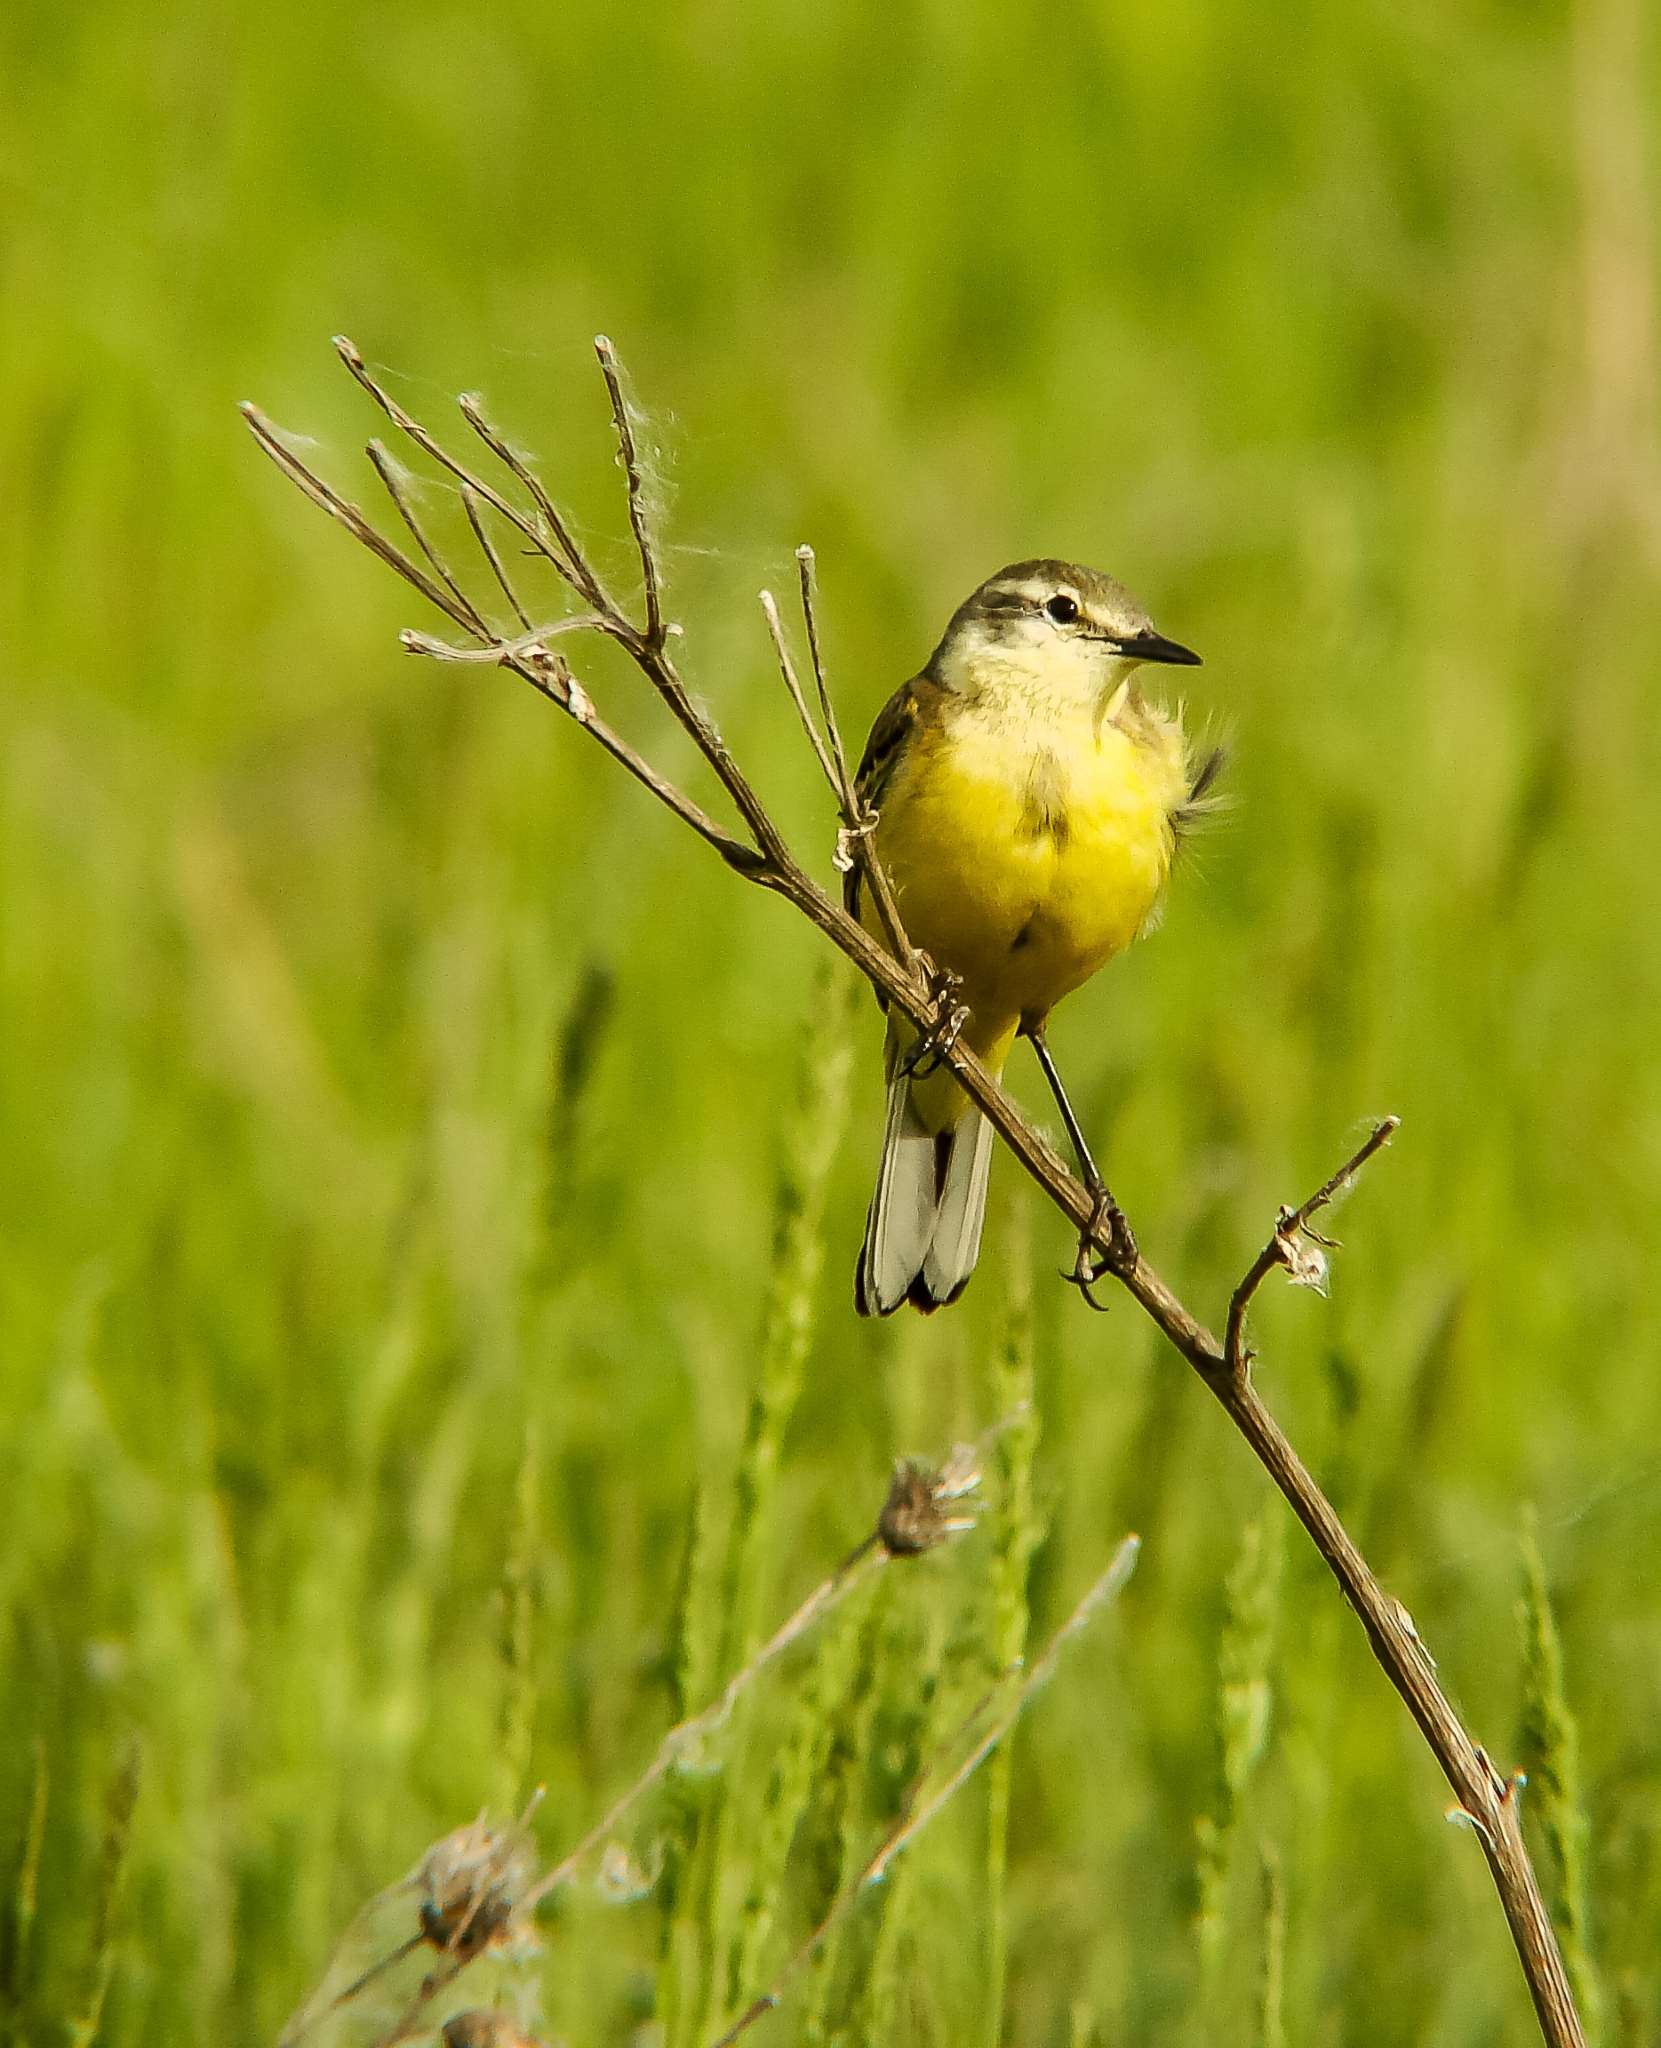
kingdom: Animalia
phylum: Chordata
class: Aves
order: Passeriformes
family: Motacillidae
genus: Motacilla
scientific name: Motacilla flava
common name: Western yellow wagtail
